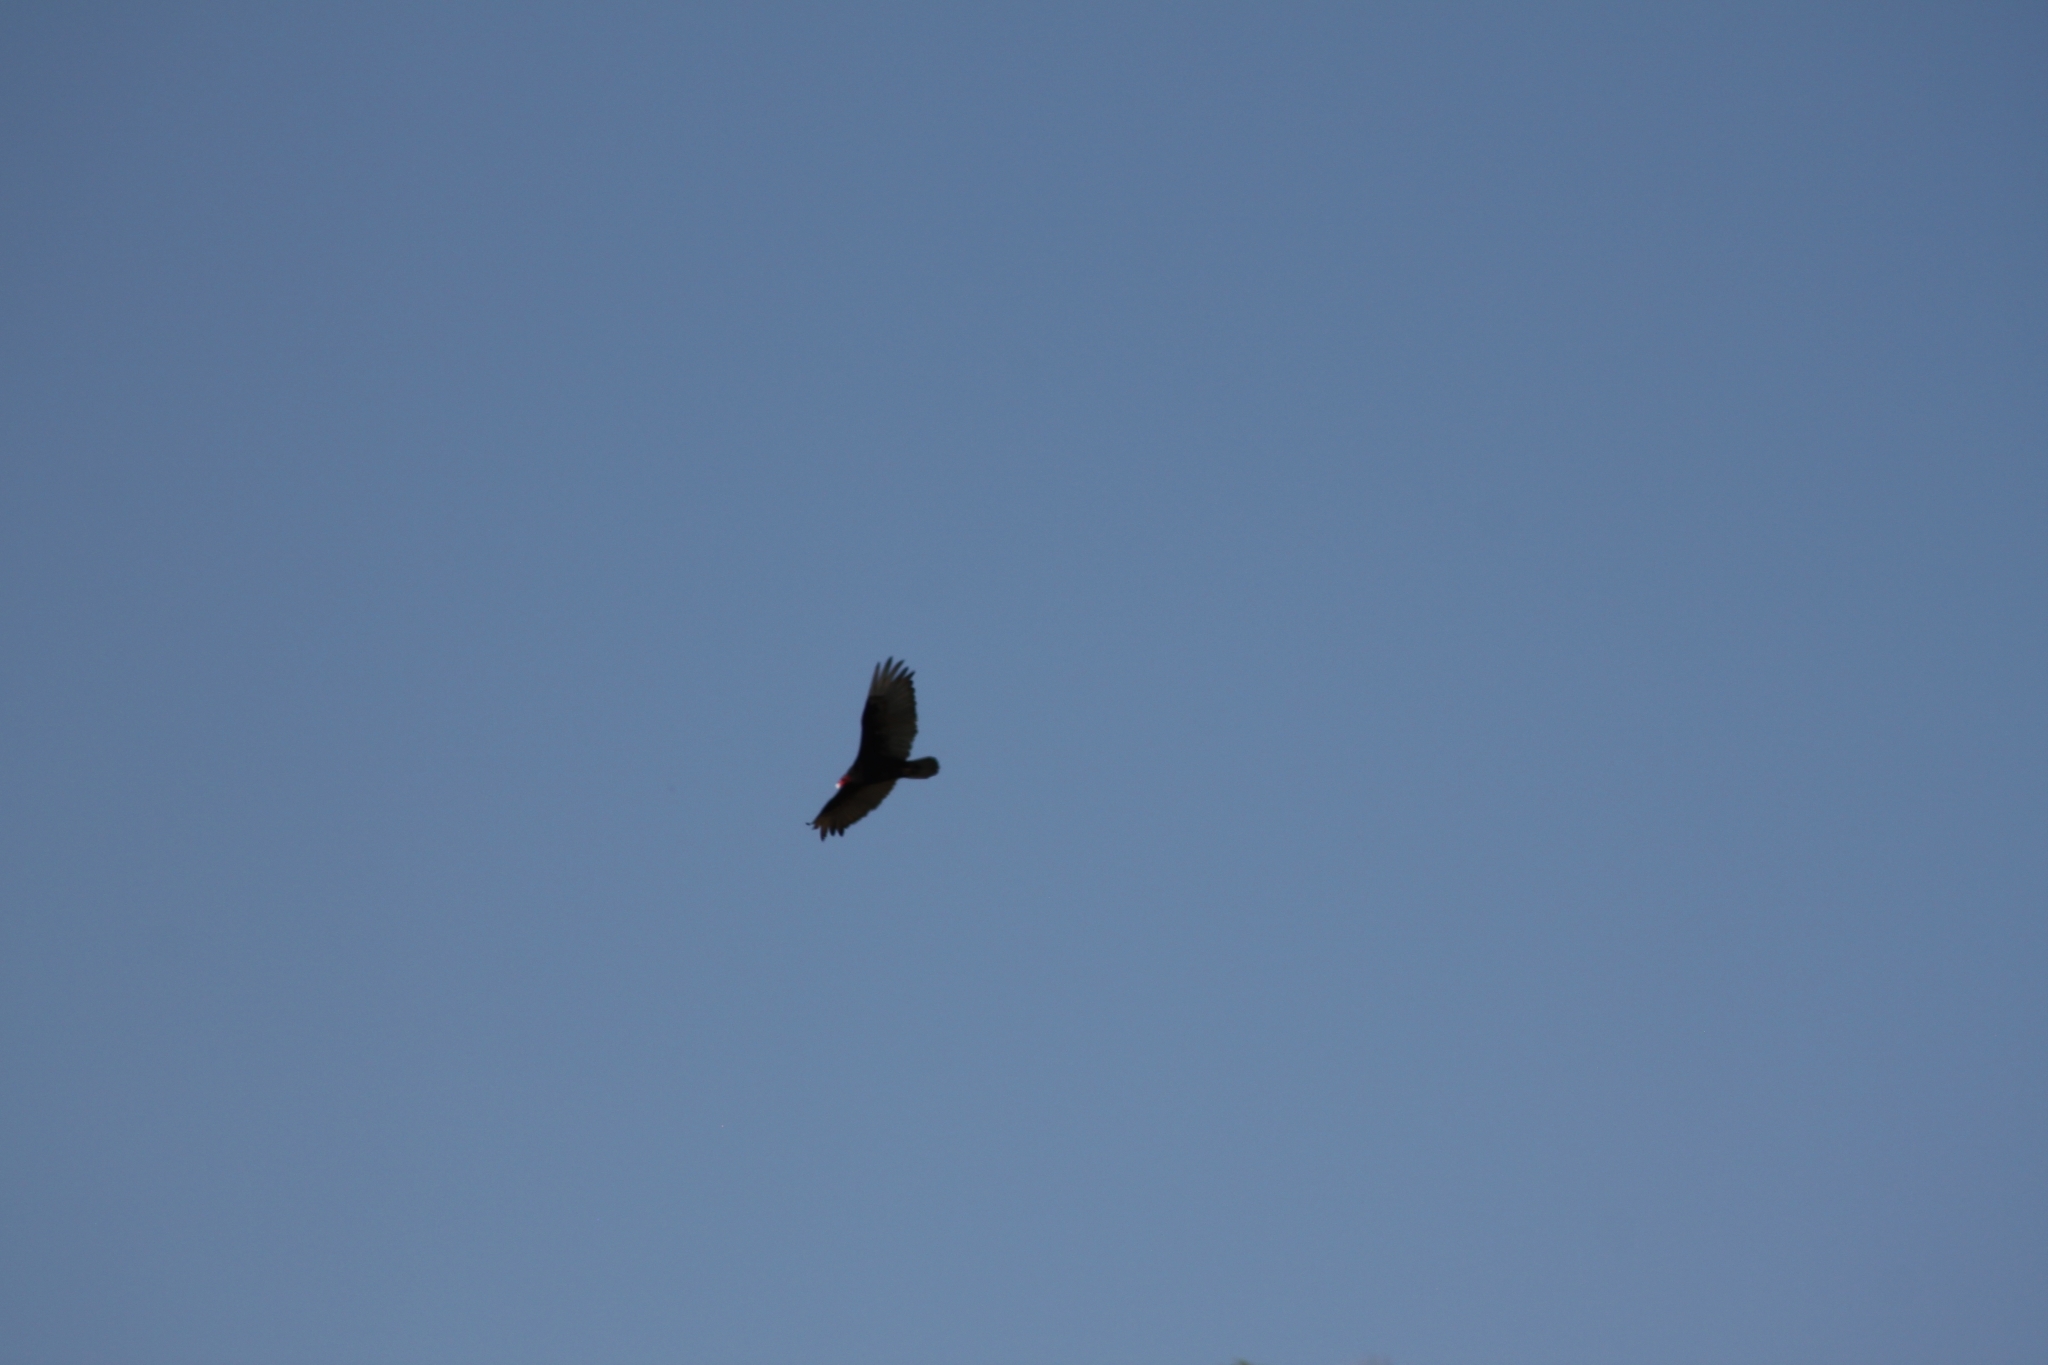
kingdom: Animalia
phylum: Chordata
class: Aves
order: Accipitriformes
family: Accipitridae
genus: Buteo
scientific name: Buteo jamaicensis
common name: Red-tailed hawk
